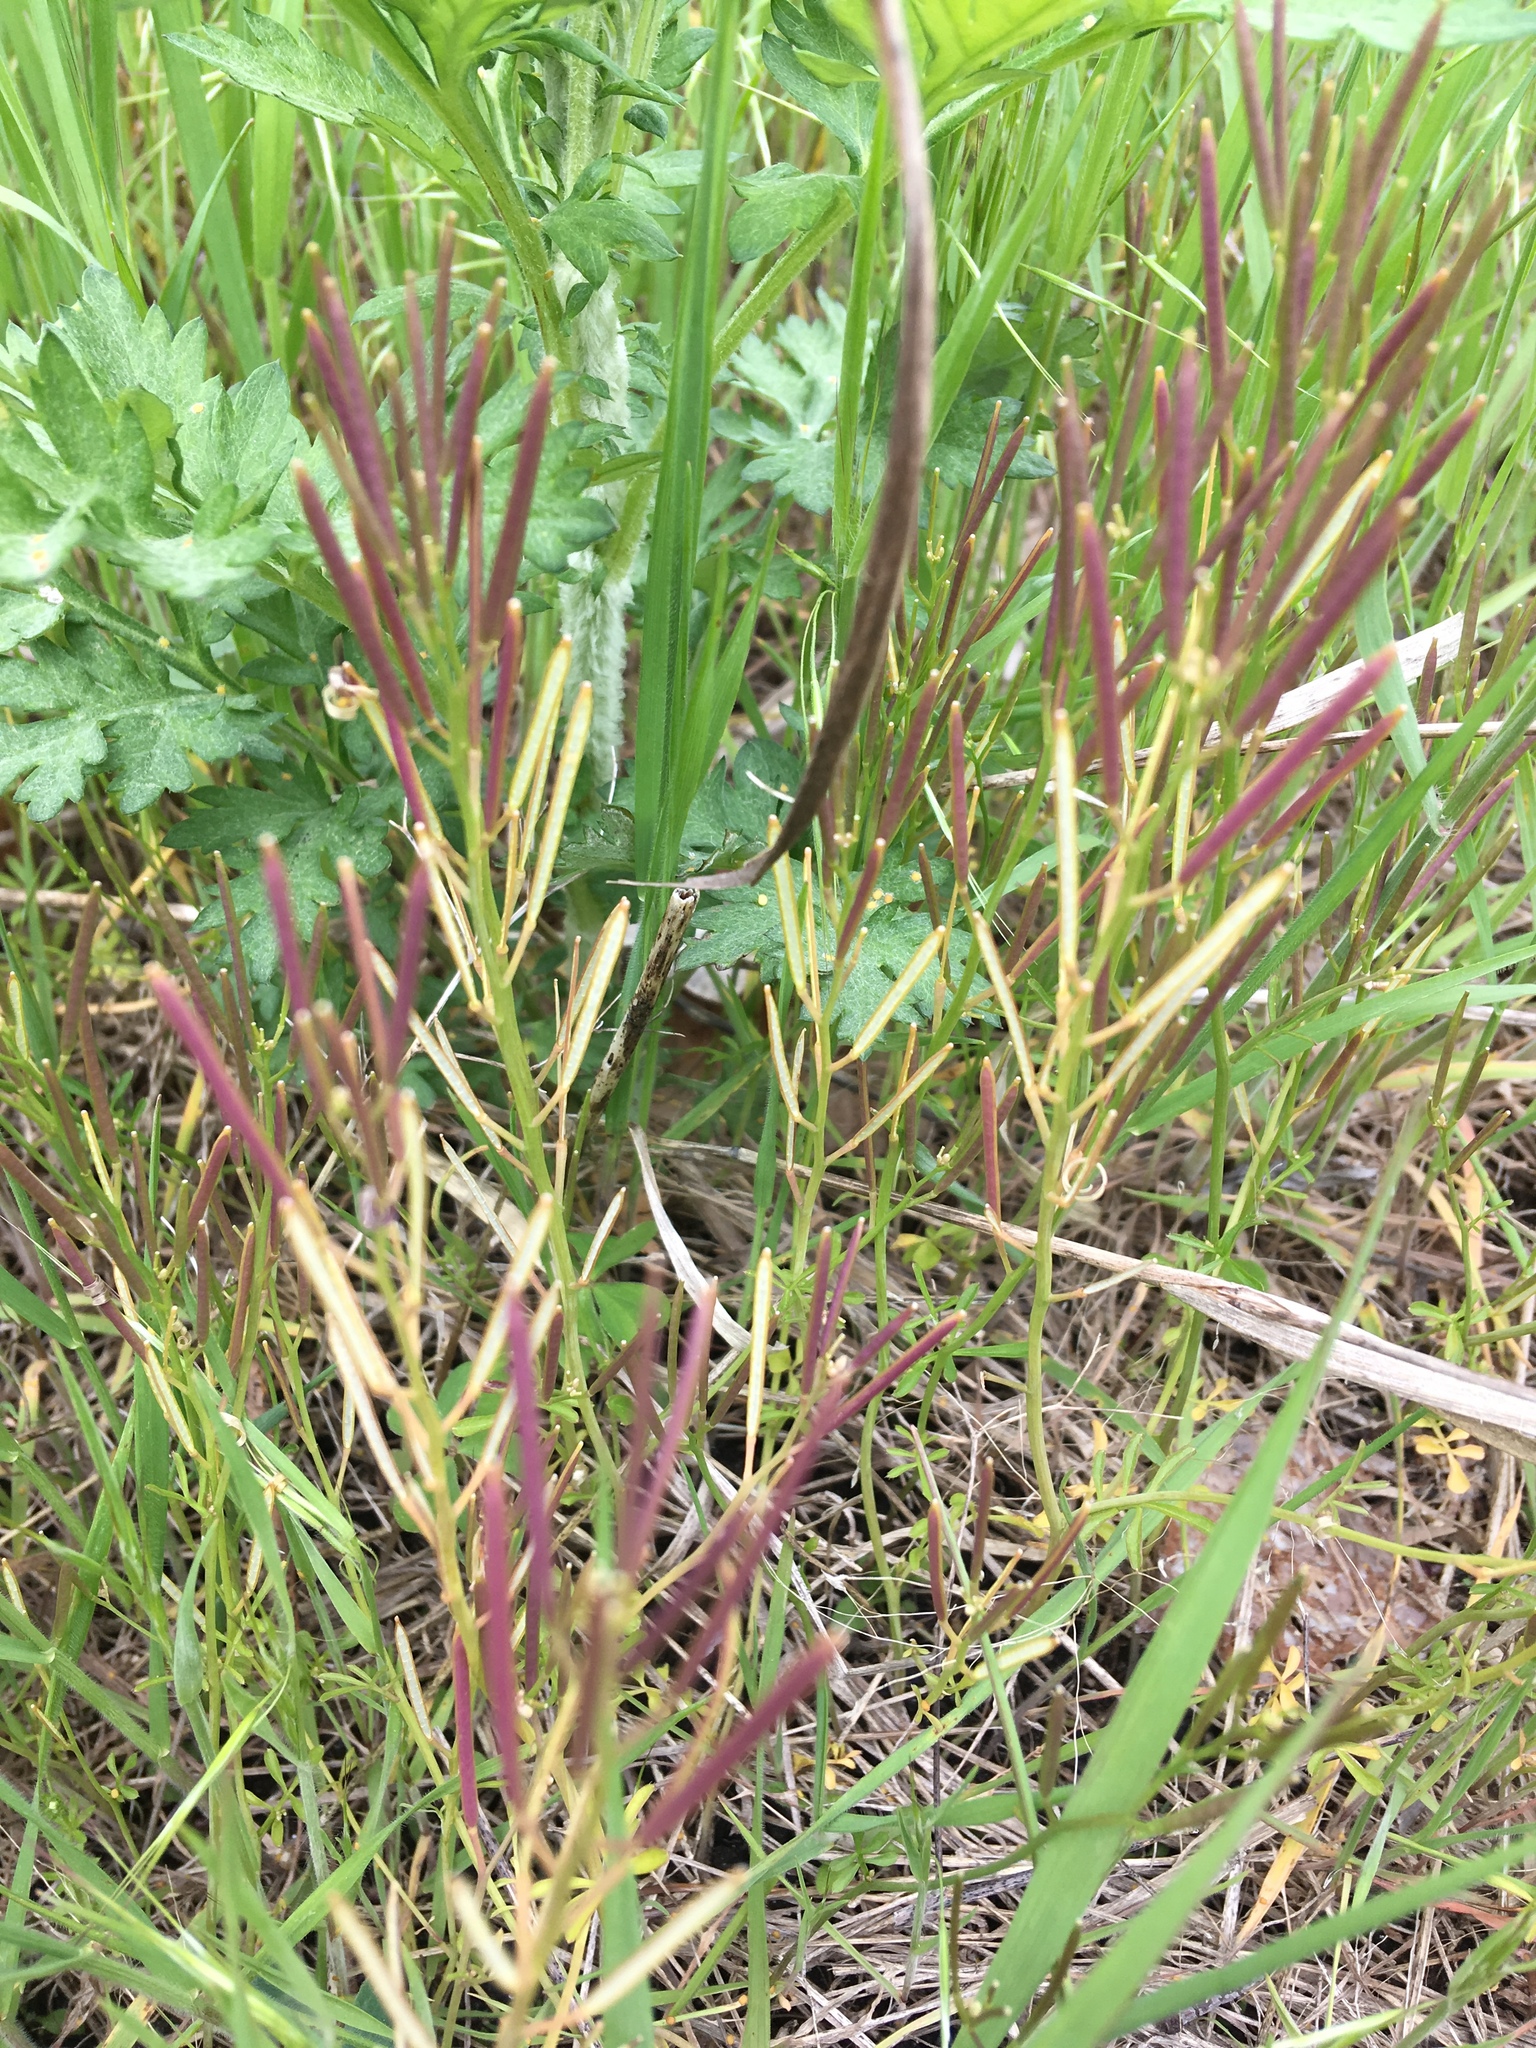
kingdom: Plantae
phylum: Tracheophyta
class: Magnoliopsida
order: Brassicales
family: Brassicaceae
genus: Cardamine
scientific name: Cardamine hirsuta
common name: Hairy bittercress
